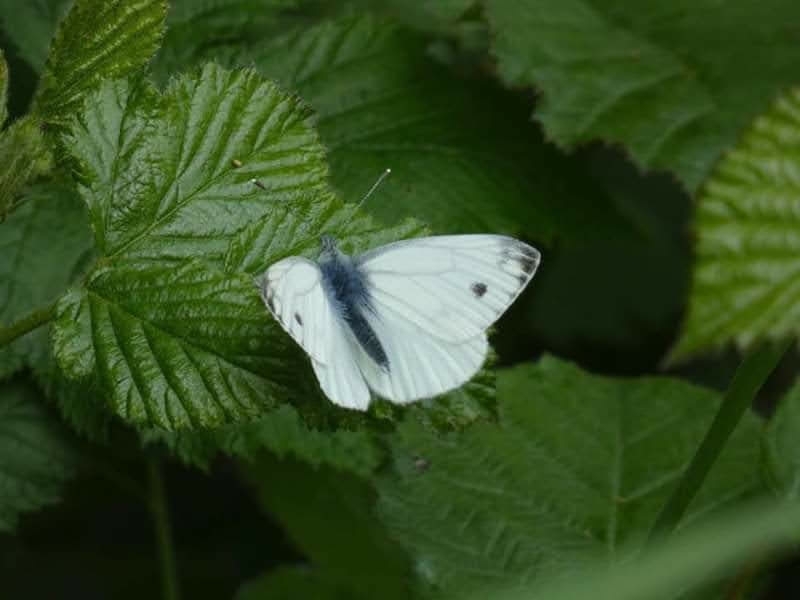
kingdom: Animalia
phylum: Arthropoda
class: Insecta
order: Lepidoptera
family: Pieridae
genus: Pieris
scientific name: Pieris napi
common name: Green-veined white
